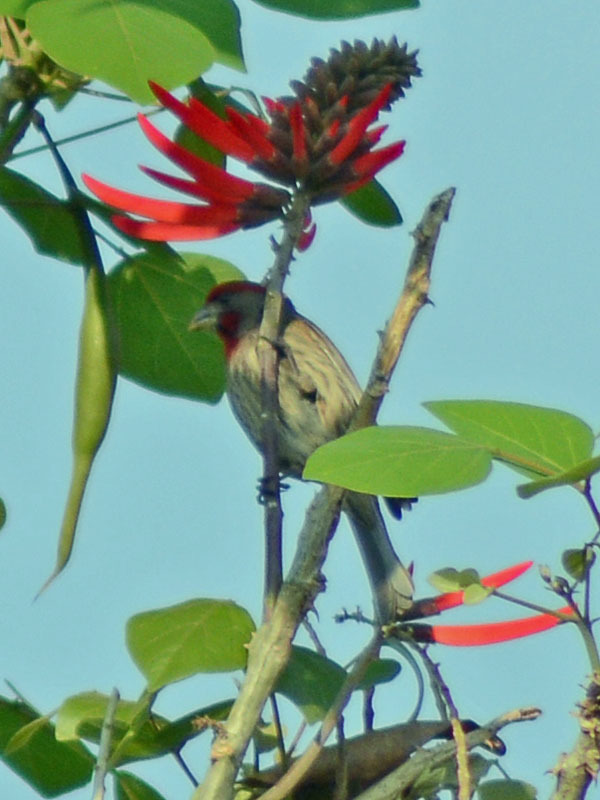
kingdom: Animalia
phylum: Chordata
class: Aves
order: Passeriformes
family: Fringillidae
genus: Haemorhous
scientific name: Haemorhous mexicanus
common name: House finch
